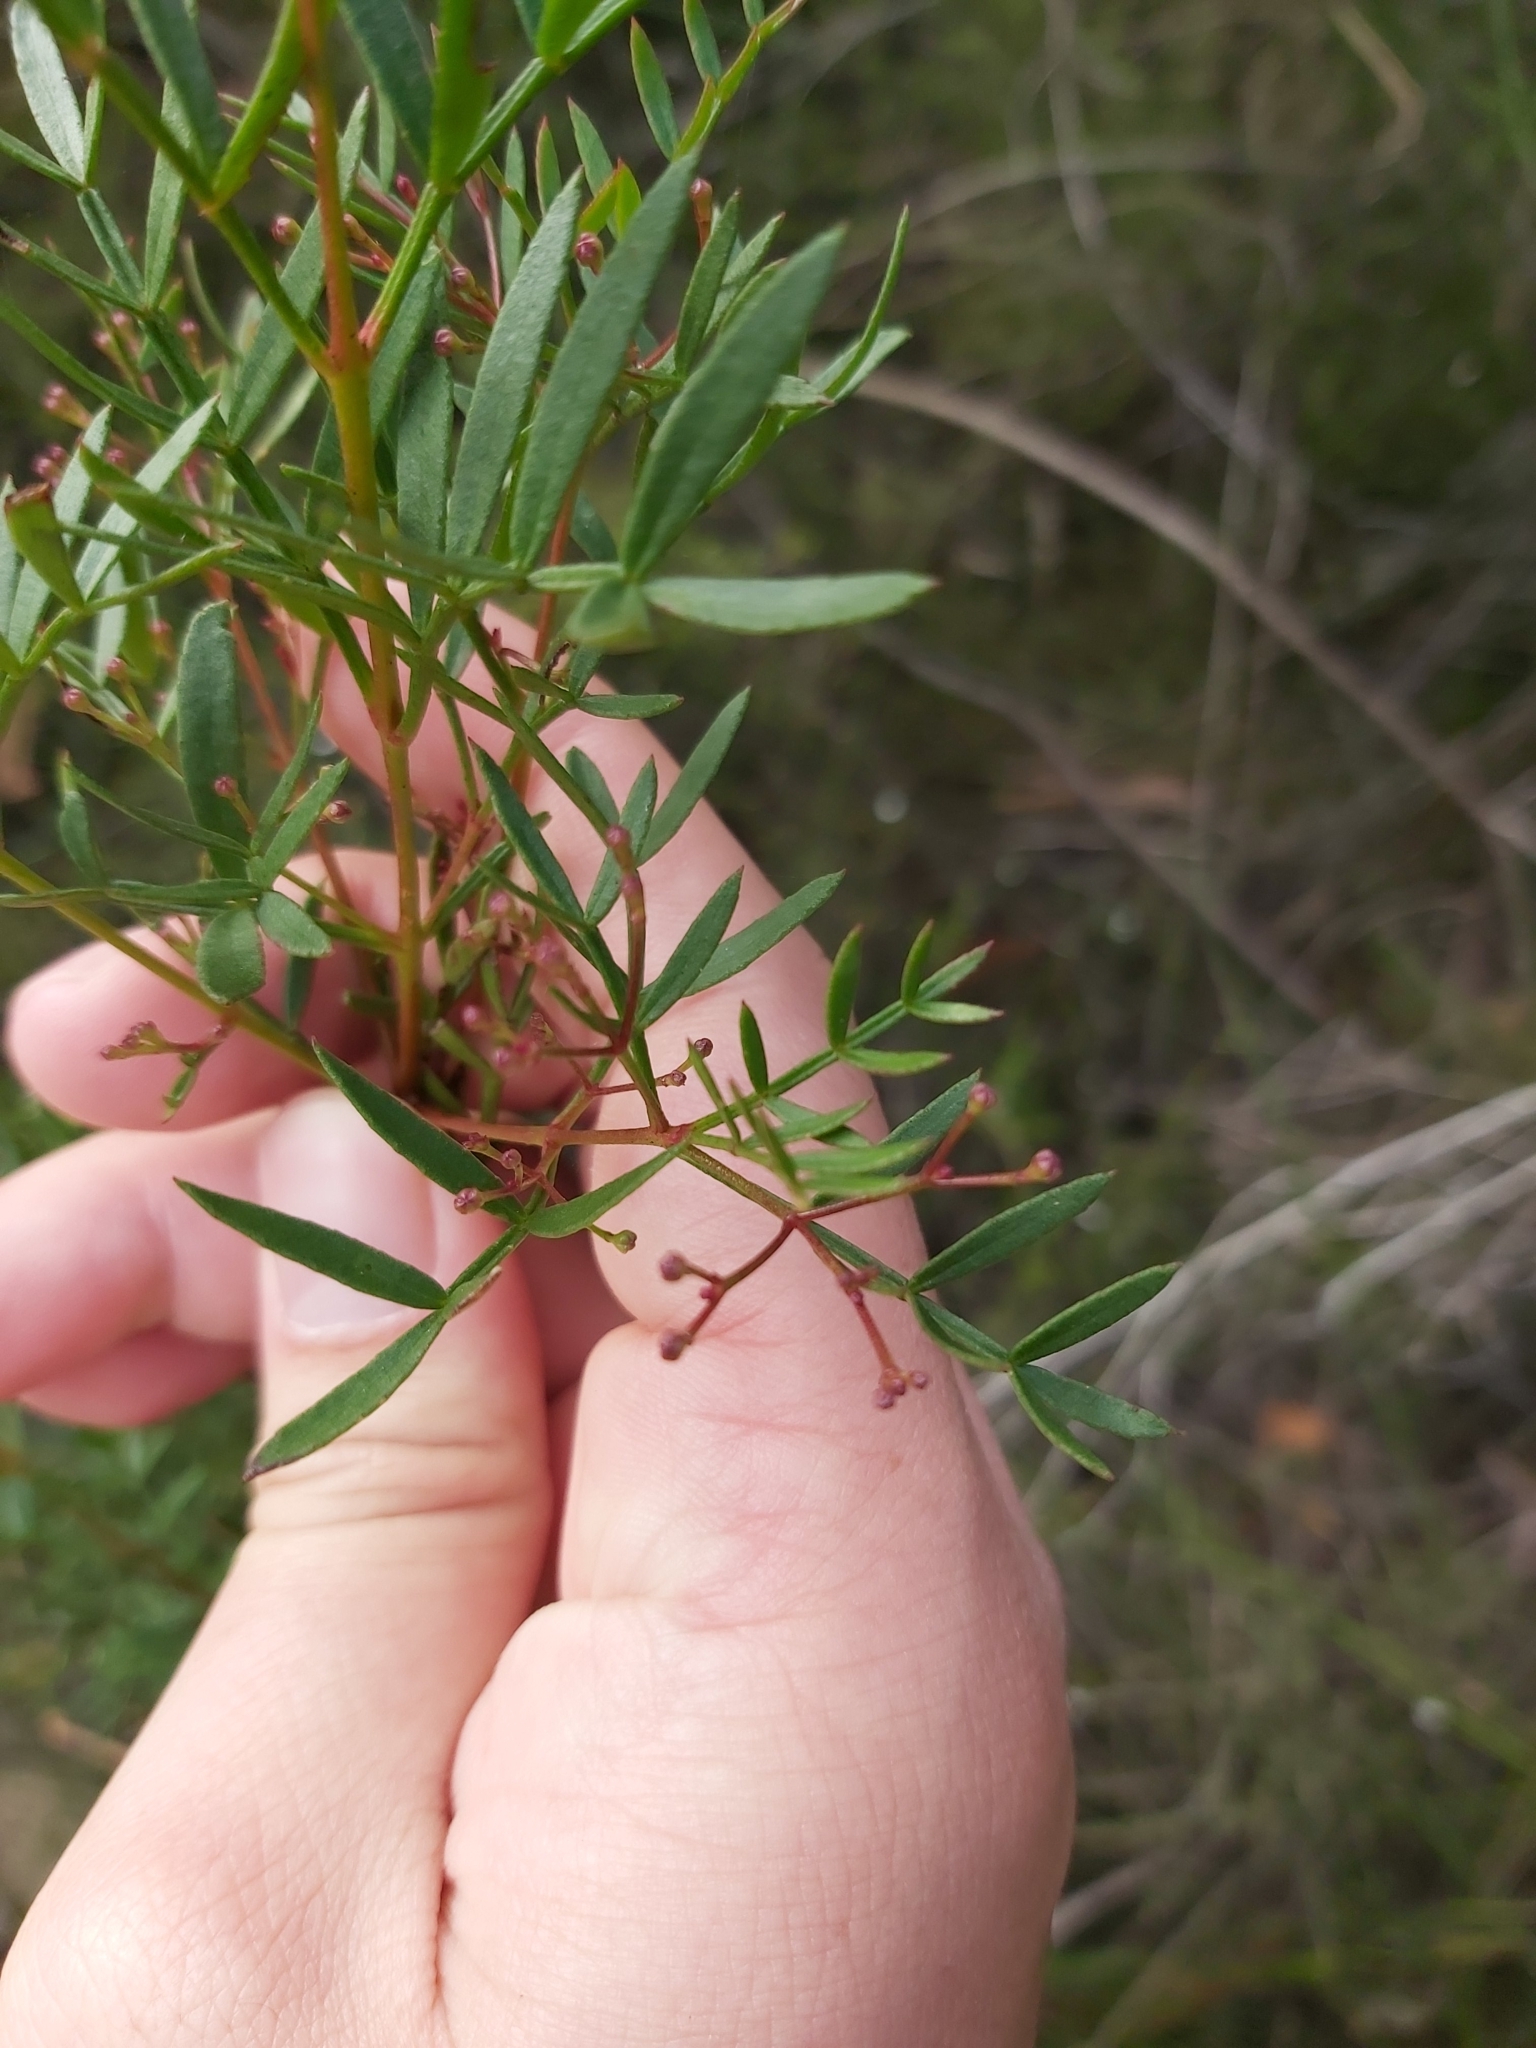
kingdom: Plantae
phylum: Tracheophyta
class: Magnoliopsida
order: Sapindales
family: Rutaceae
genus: Boronia
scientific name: Boronia pinnata
